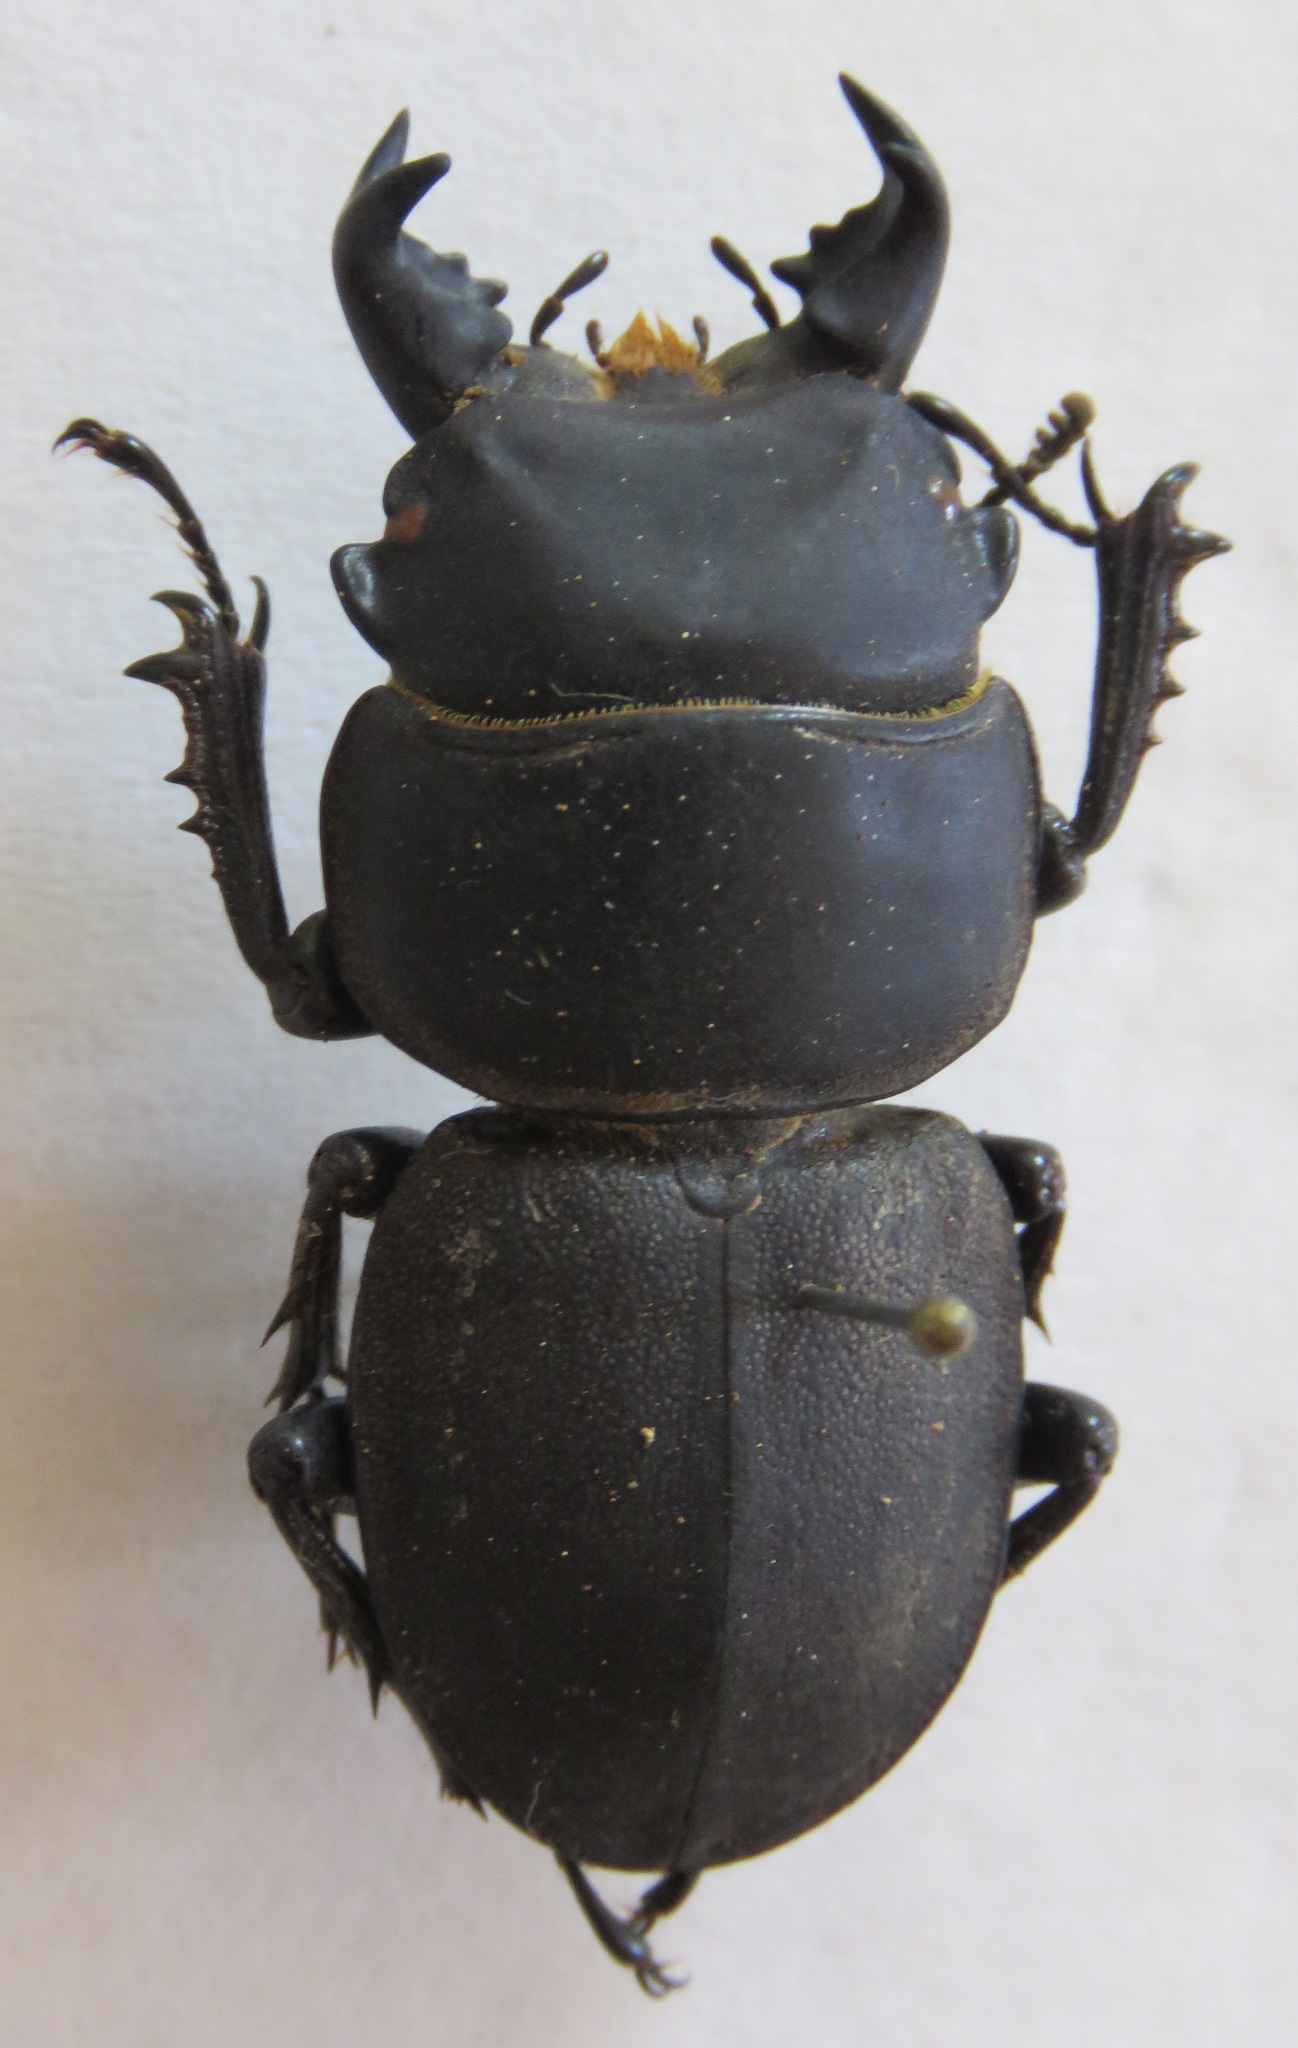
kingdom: Animalia
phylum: Arthropoda
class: Insecta
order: Coleoptera
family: Lucanidae
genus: Apterodorcus
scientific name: Apterodorcus bacchus
